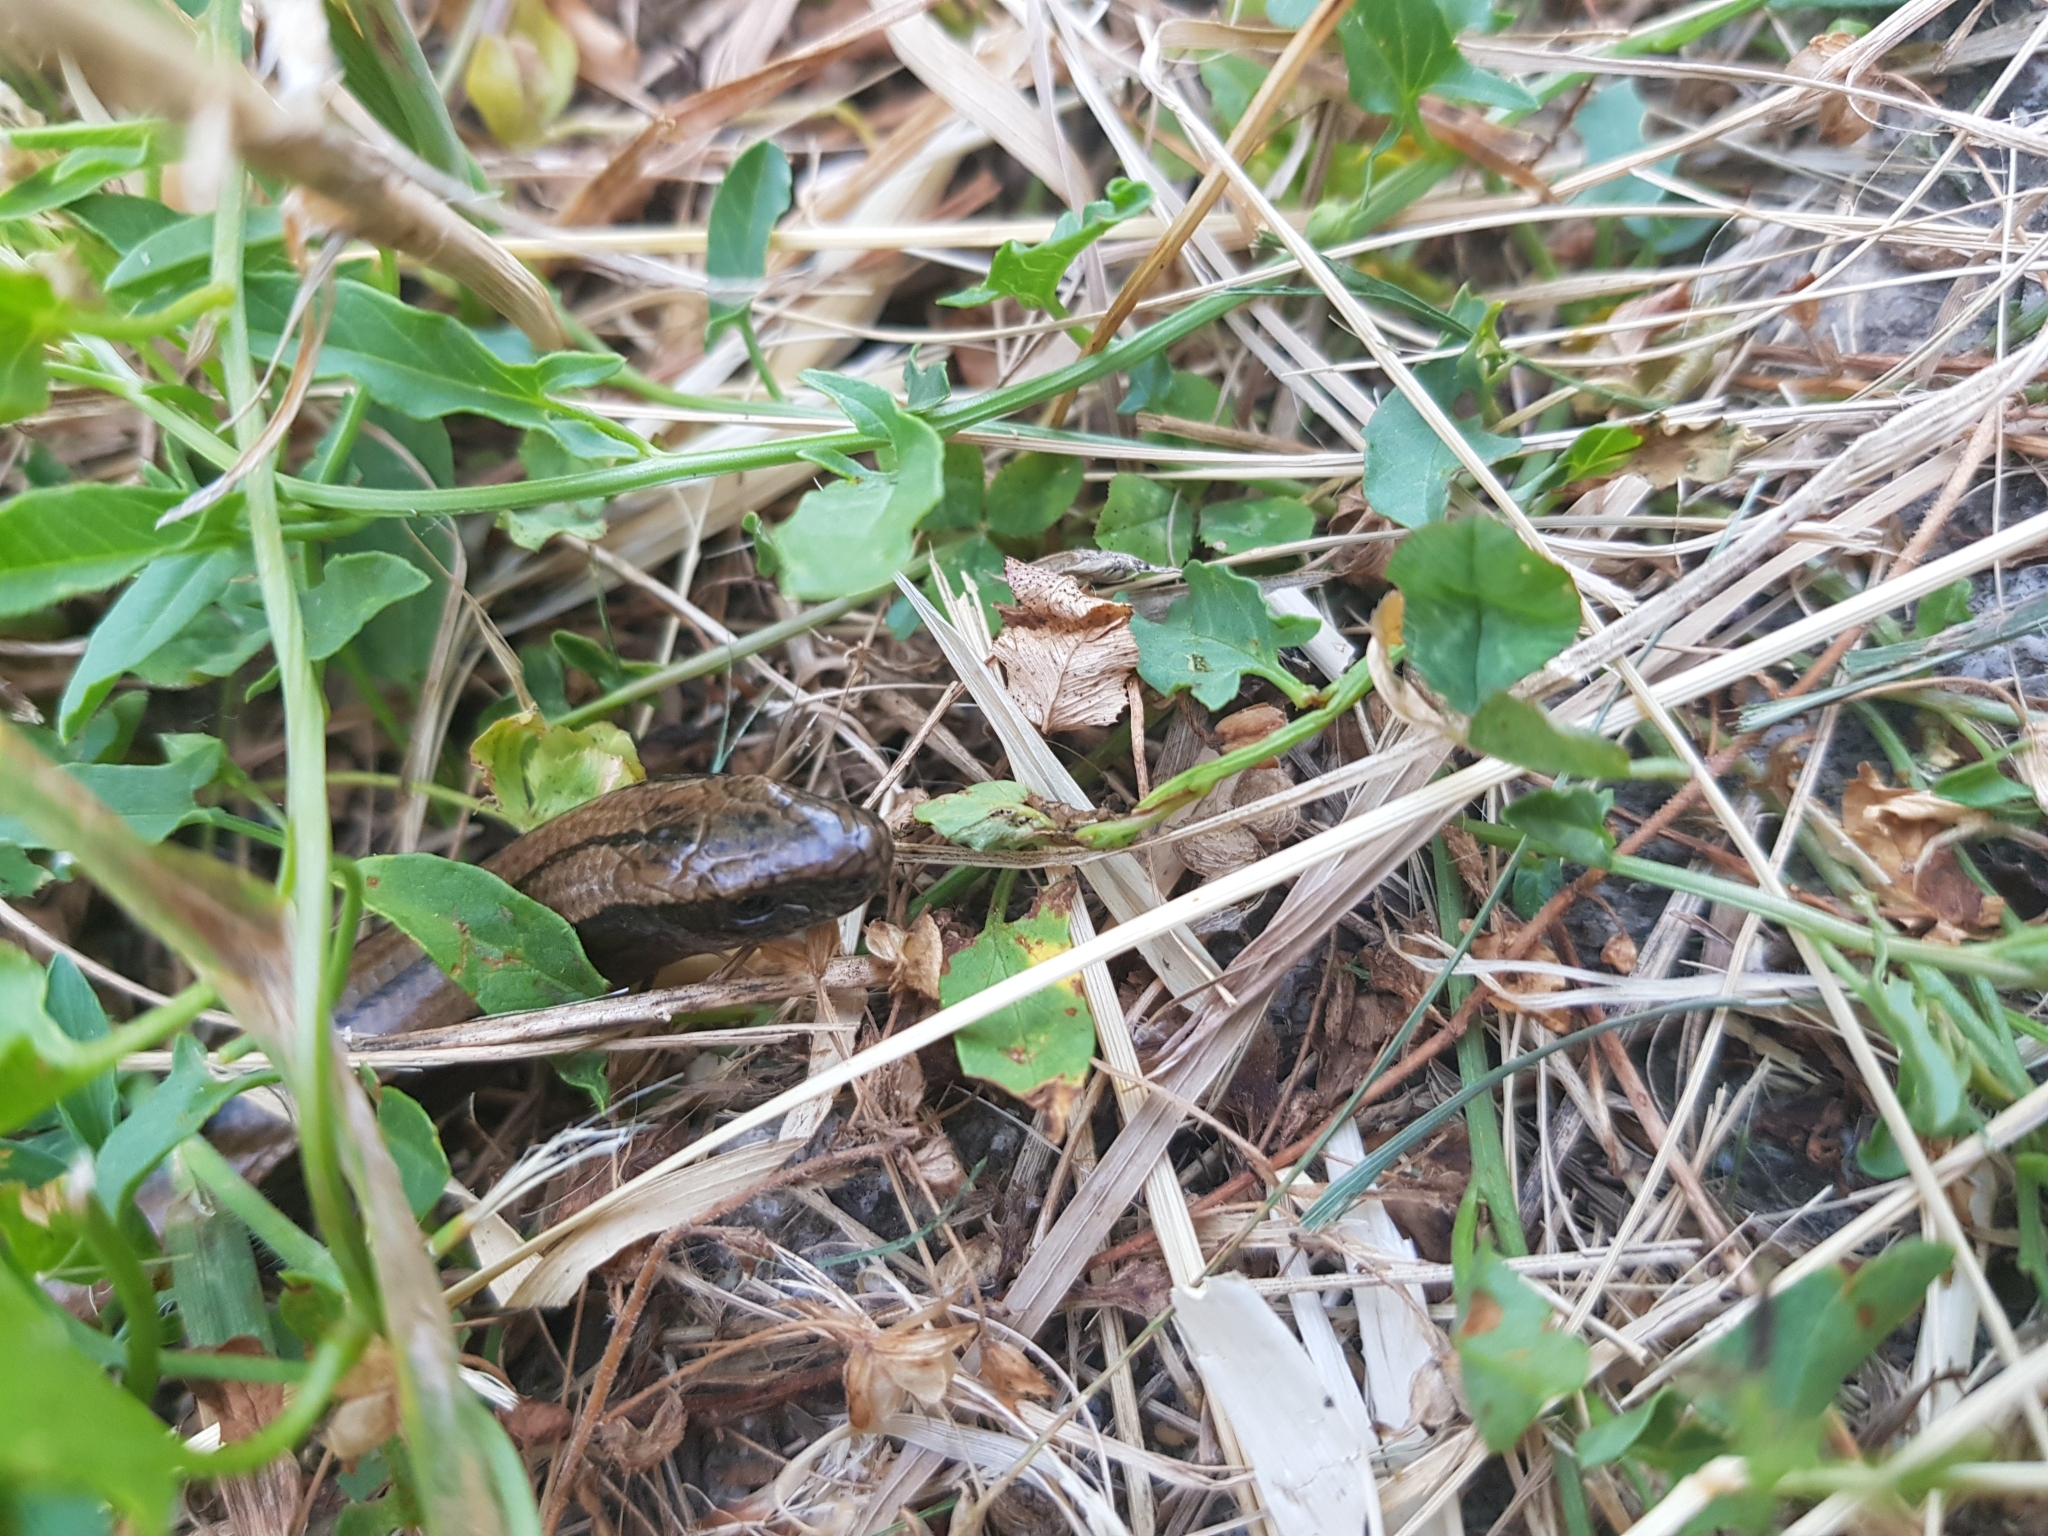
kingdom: Animalia
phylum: Chordata
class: Squamata
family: Anguidae
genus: Anguis
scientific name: Anguis fragilis
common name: Slow worm
